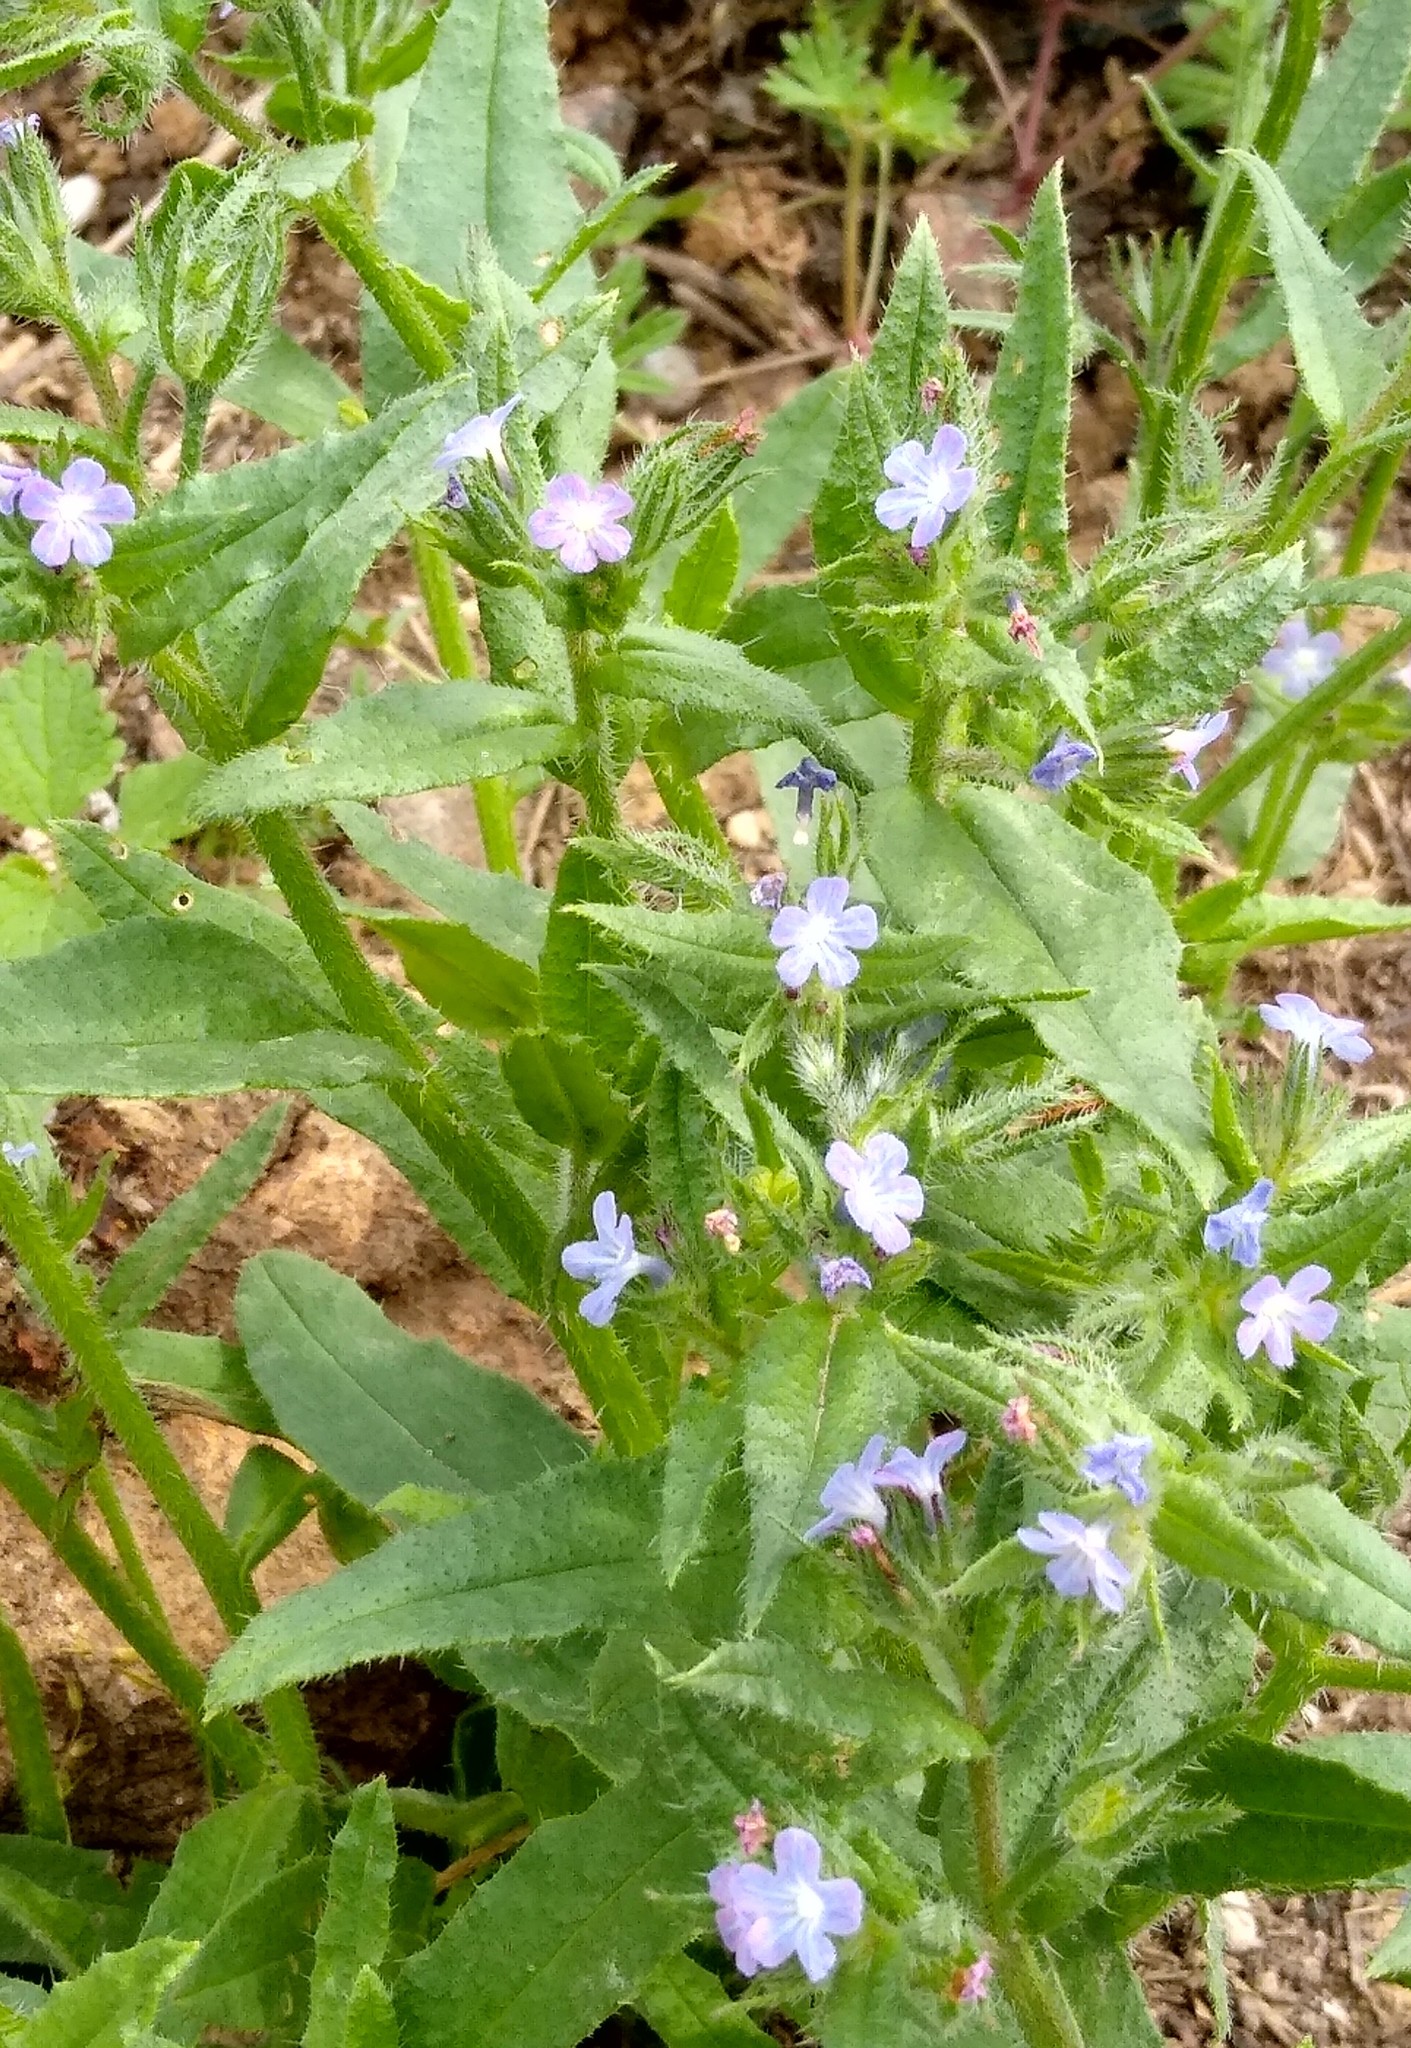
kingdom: Plantae
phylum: Tracheophyta
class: Magnoliopsida
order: Boraginales
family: Boraginaceae
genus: Lycopsis
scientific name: Lycopsis arvensis
